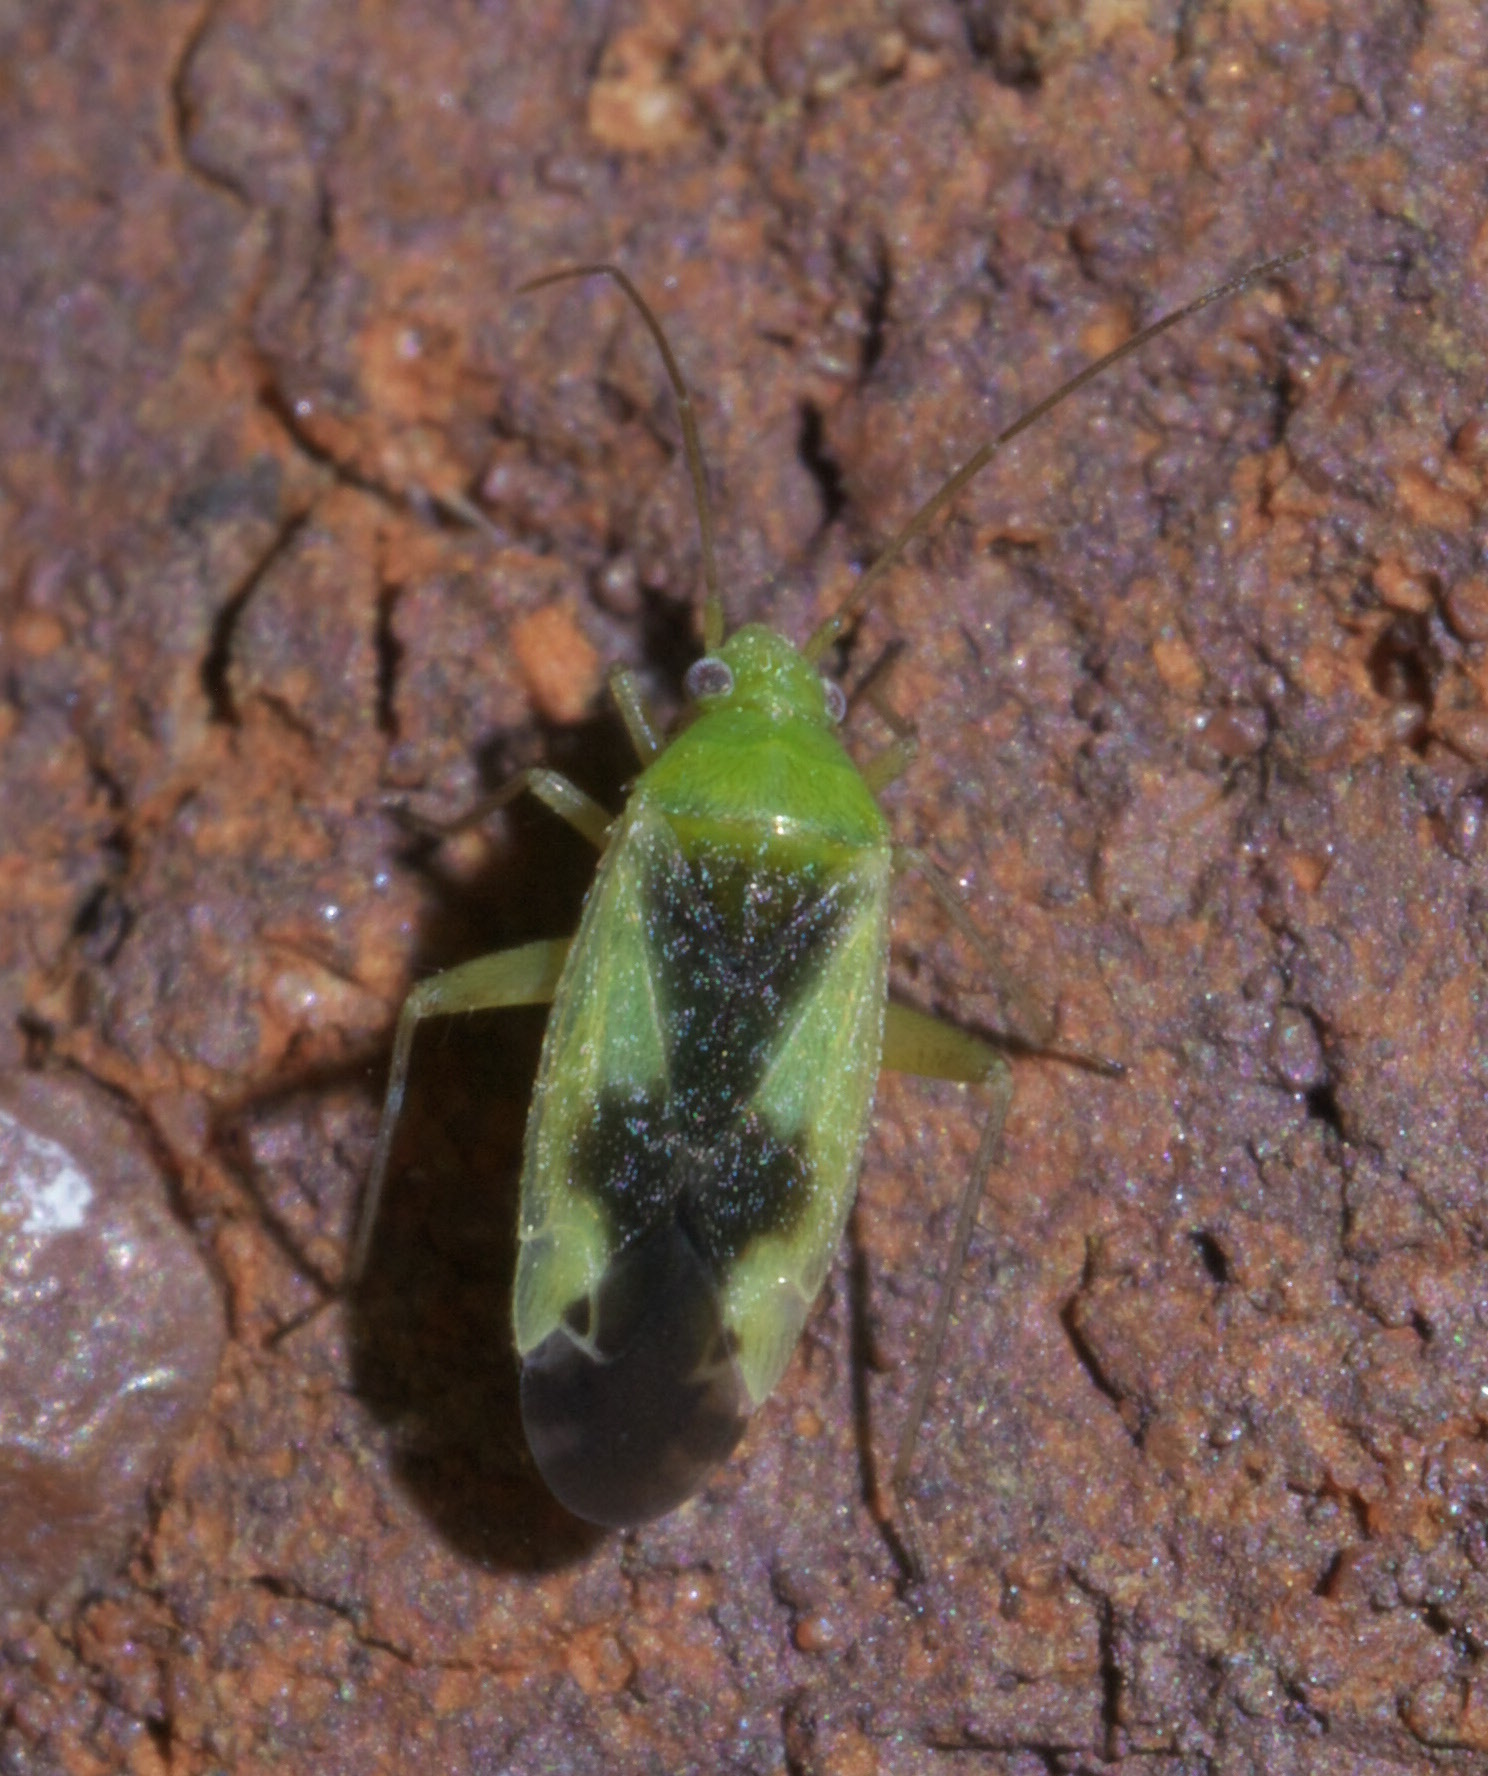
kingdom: Animalia
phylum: Arthropoda
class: Insecta
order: Hemiptera
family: Miridae
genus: Reuteroscopus
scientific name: Reuteroscopus ornatus
